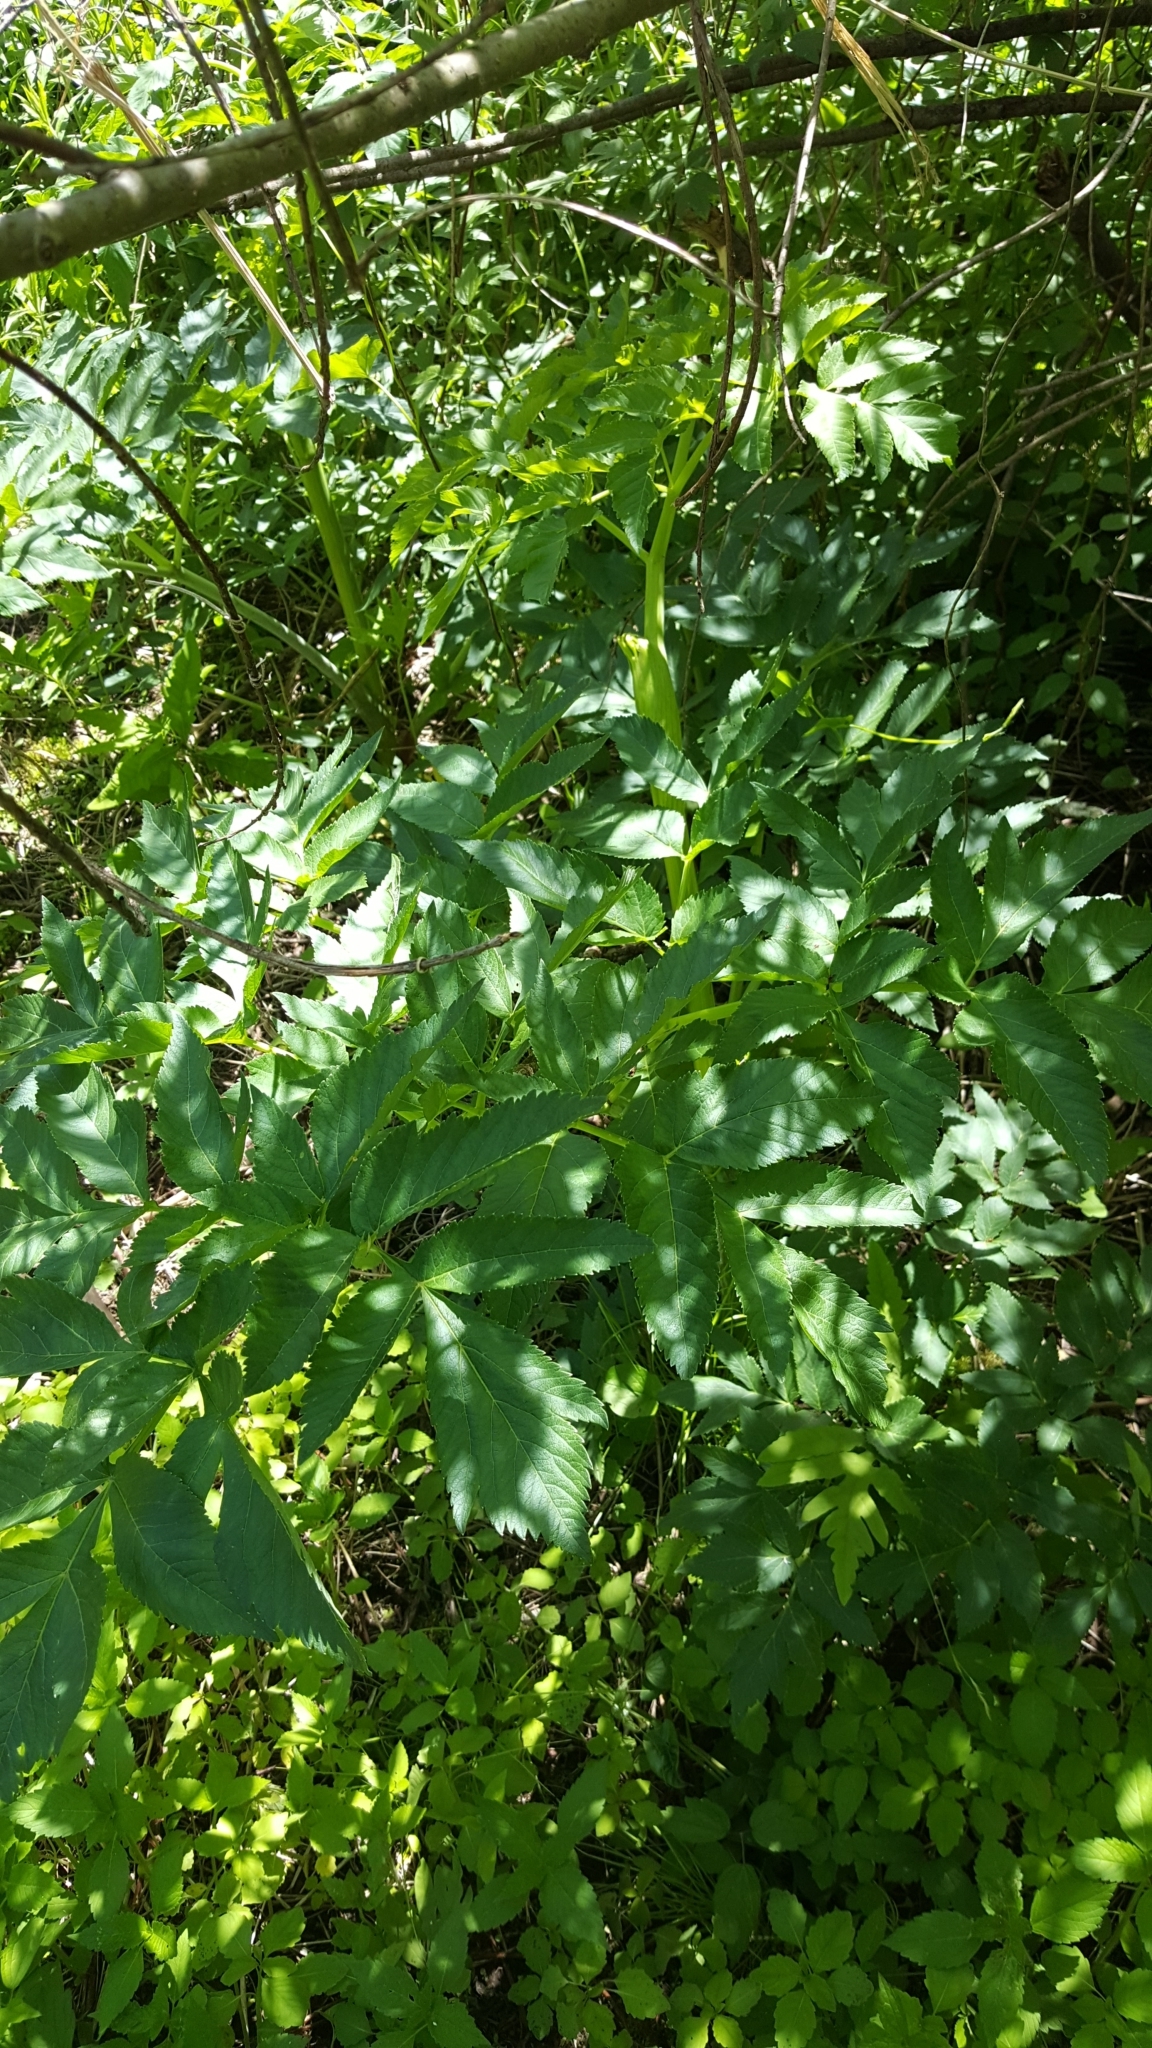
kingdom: Plantae
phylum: Tracheophyta
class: Magnoliopsida
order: Apiales
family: Apiaceae
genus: Angelica
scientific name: Angelica atropurpurea
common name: Great angelica
